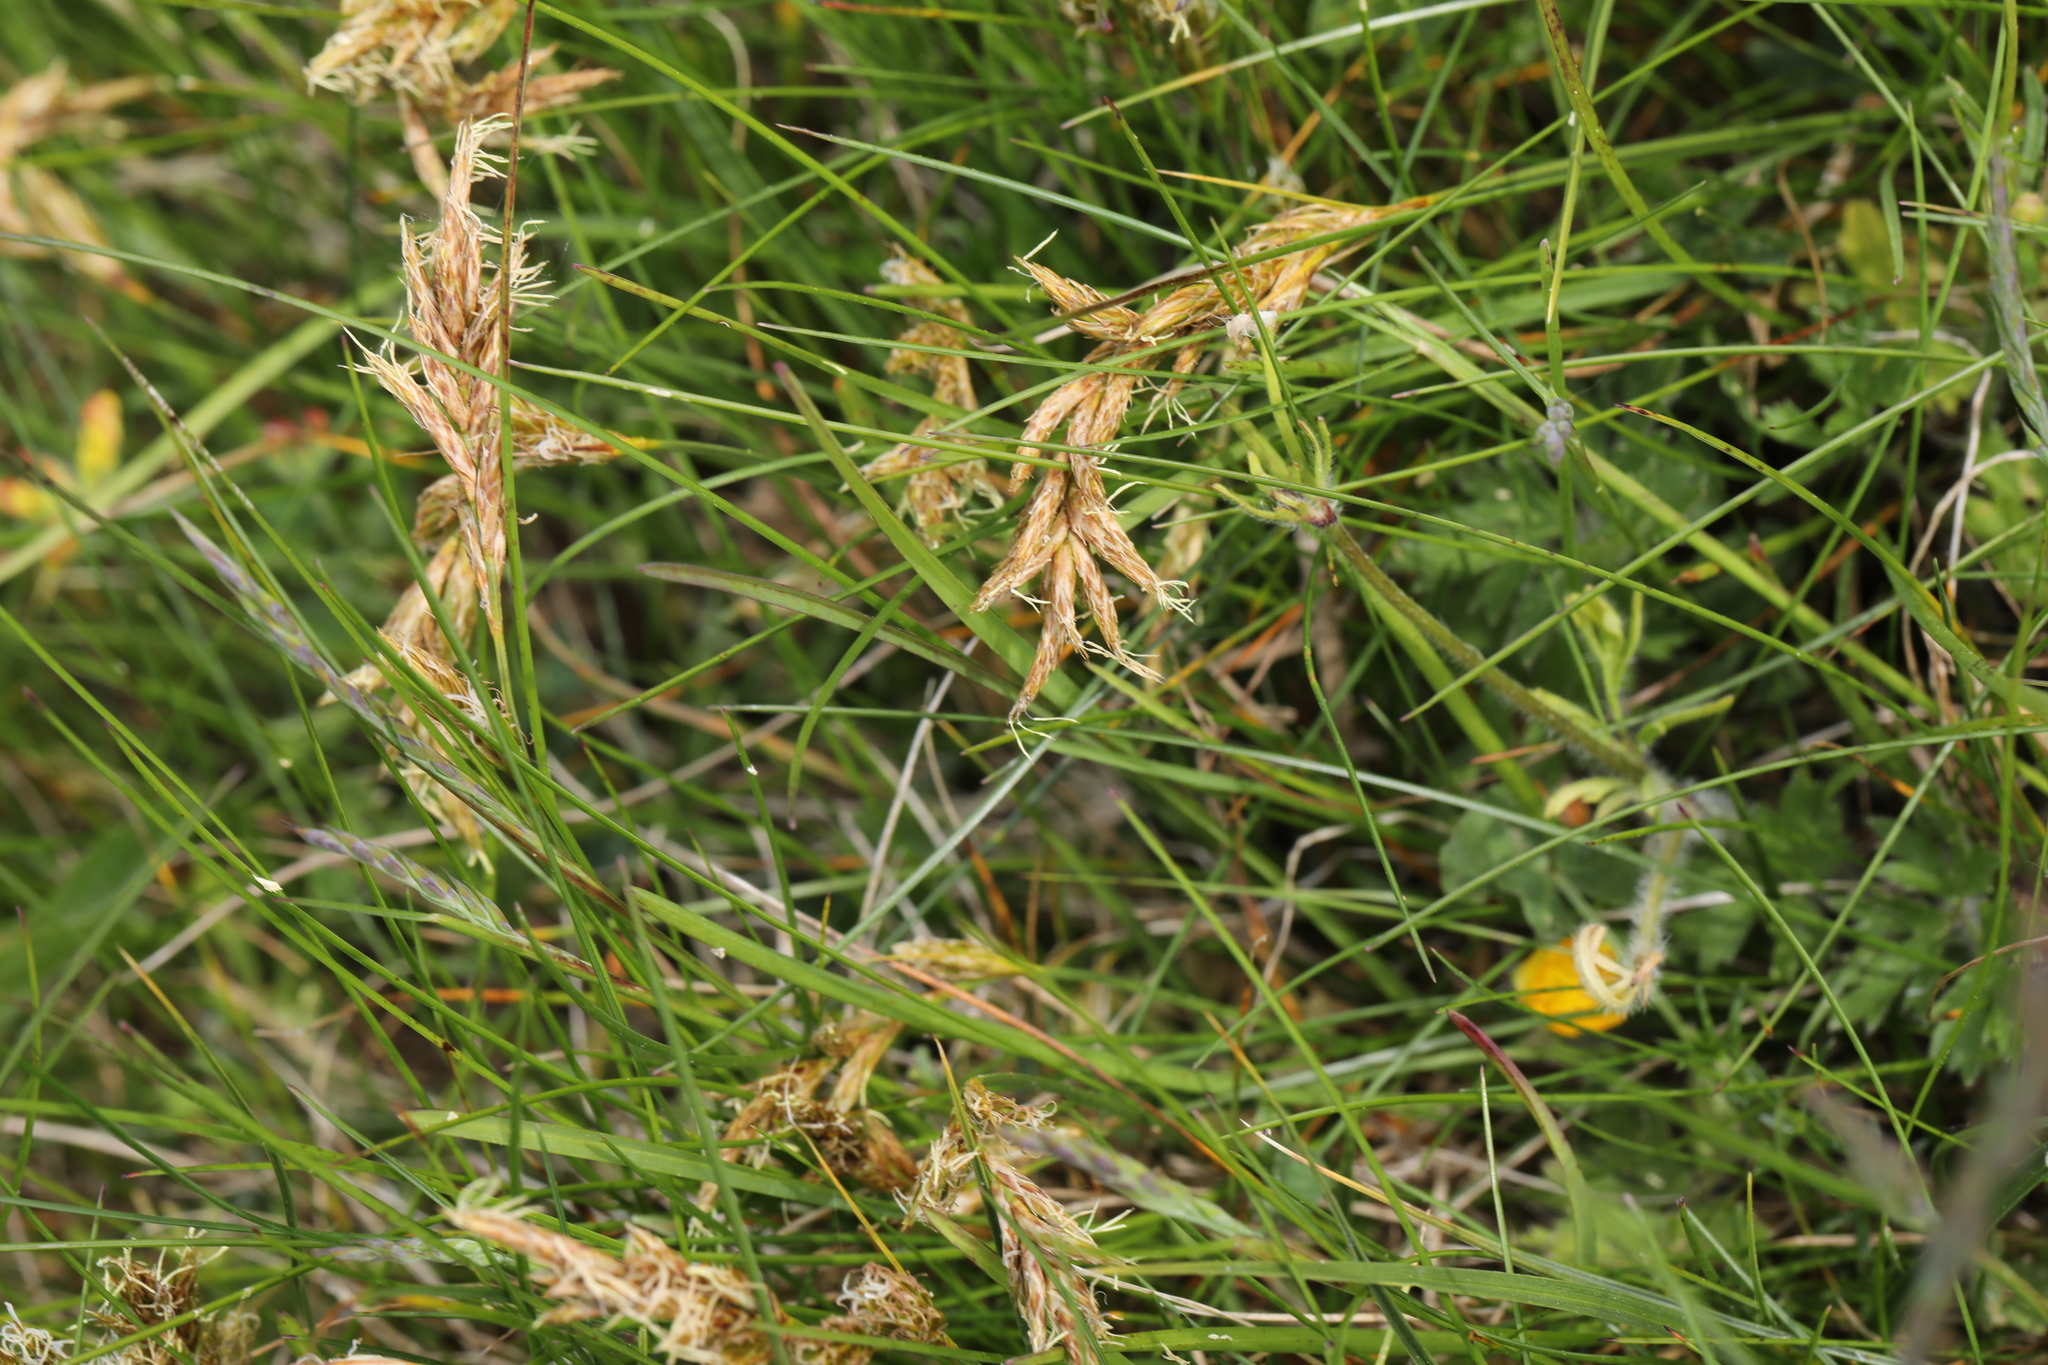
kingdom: Plantae
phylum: Tracheophyta
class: Liliopsida
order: Poales
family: Cyperaceae
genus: Carex
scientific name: Carex arenaria
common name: Sand sedge
